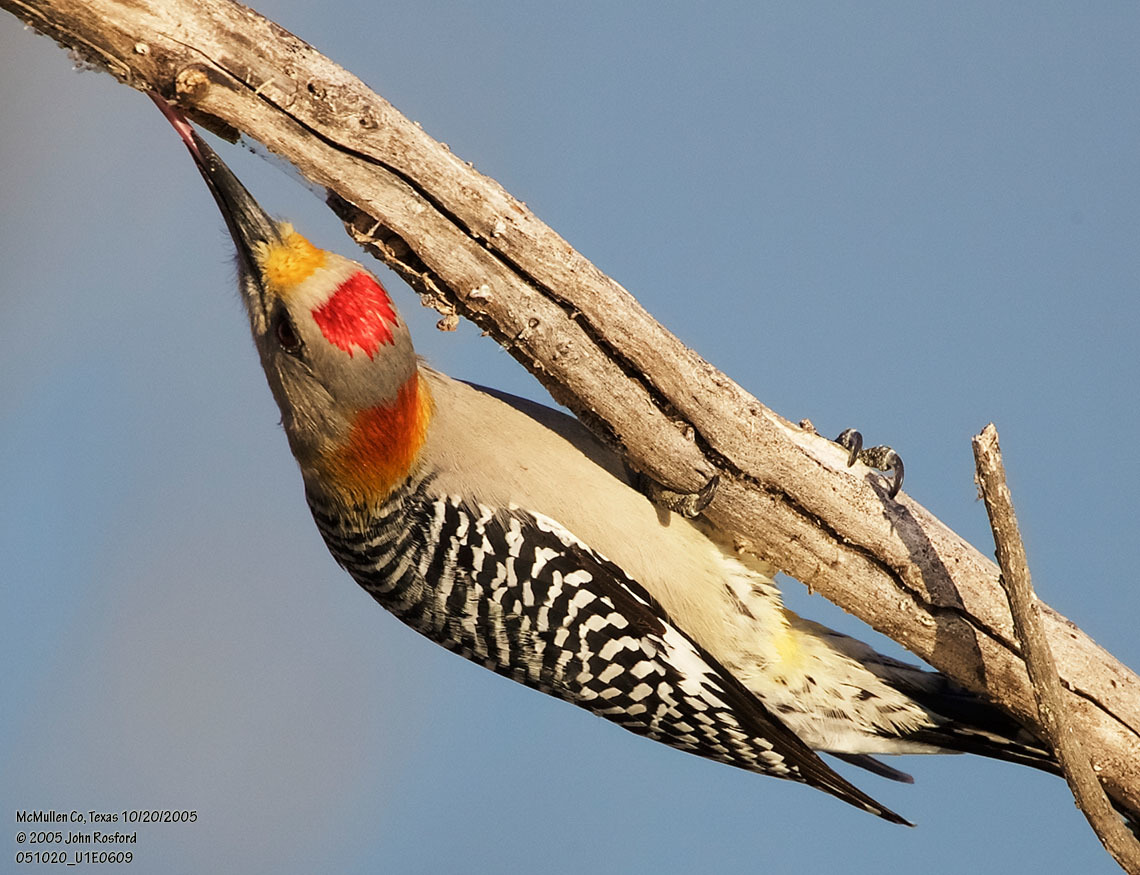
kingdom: Animalia
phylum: Chordata
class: Aves
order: Piciformes
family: Picidae
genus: Melanerpes
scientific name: Melanerpes aurifrons
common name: Golden-fronted woodpecker
